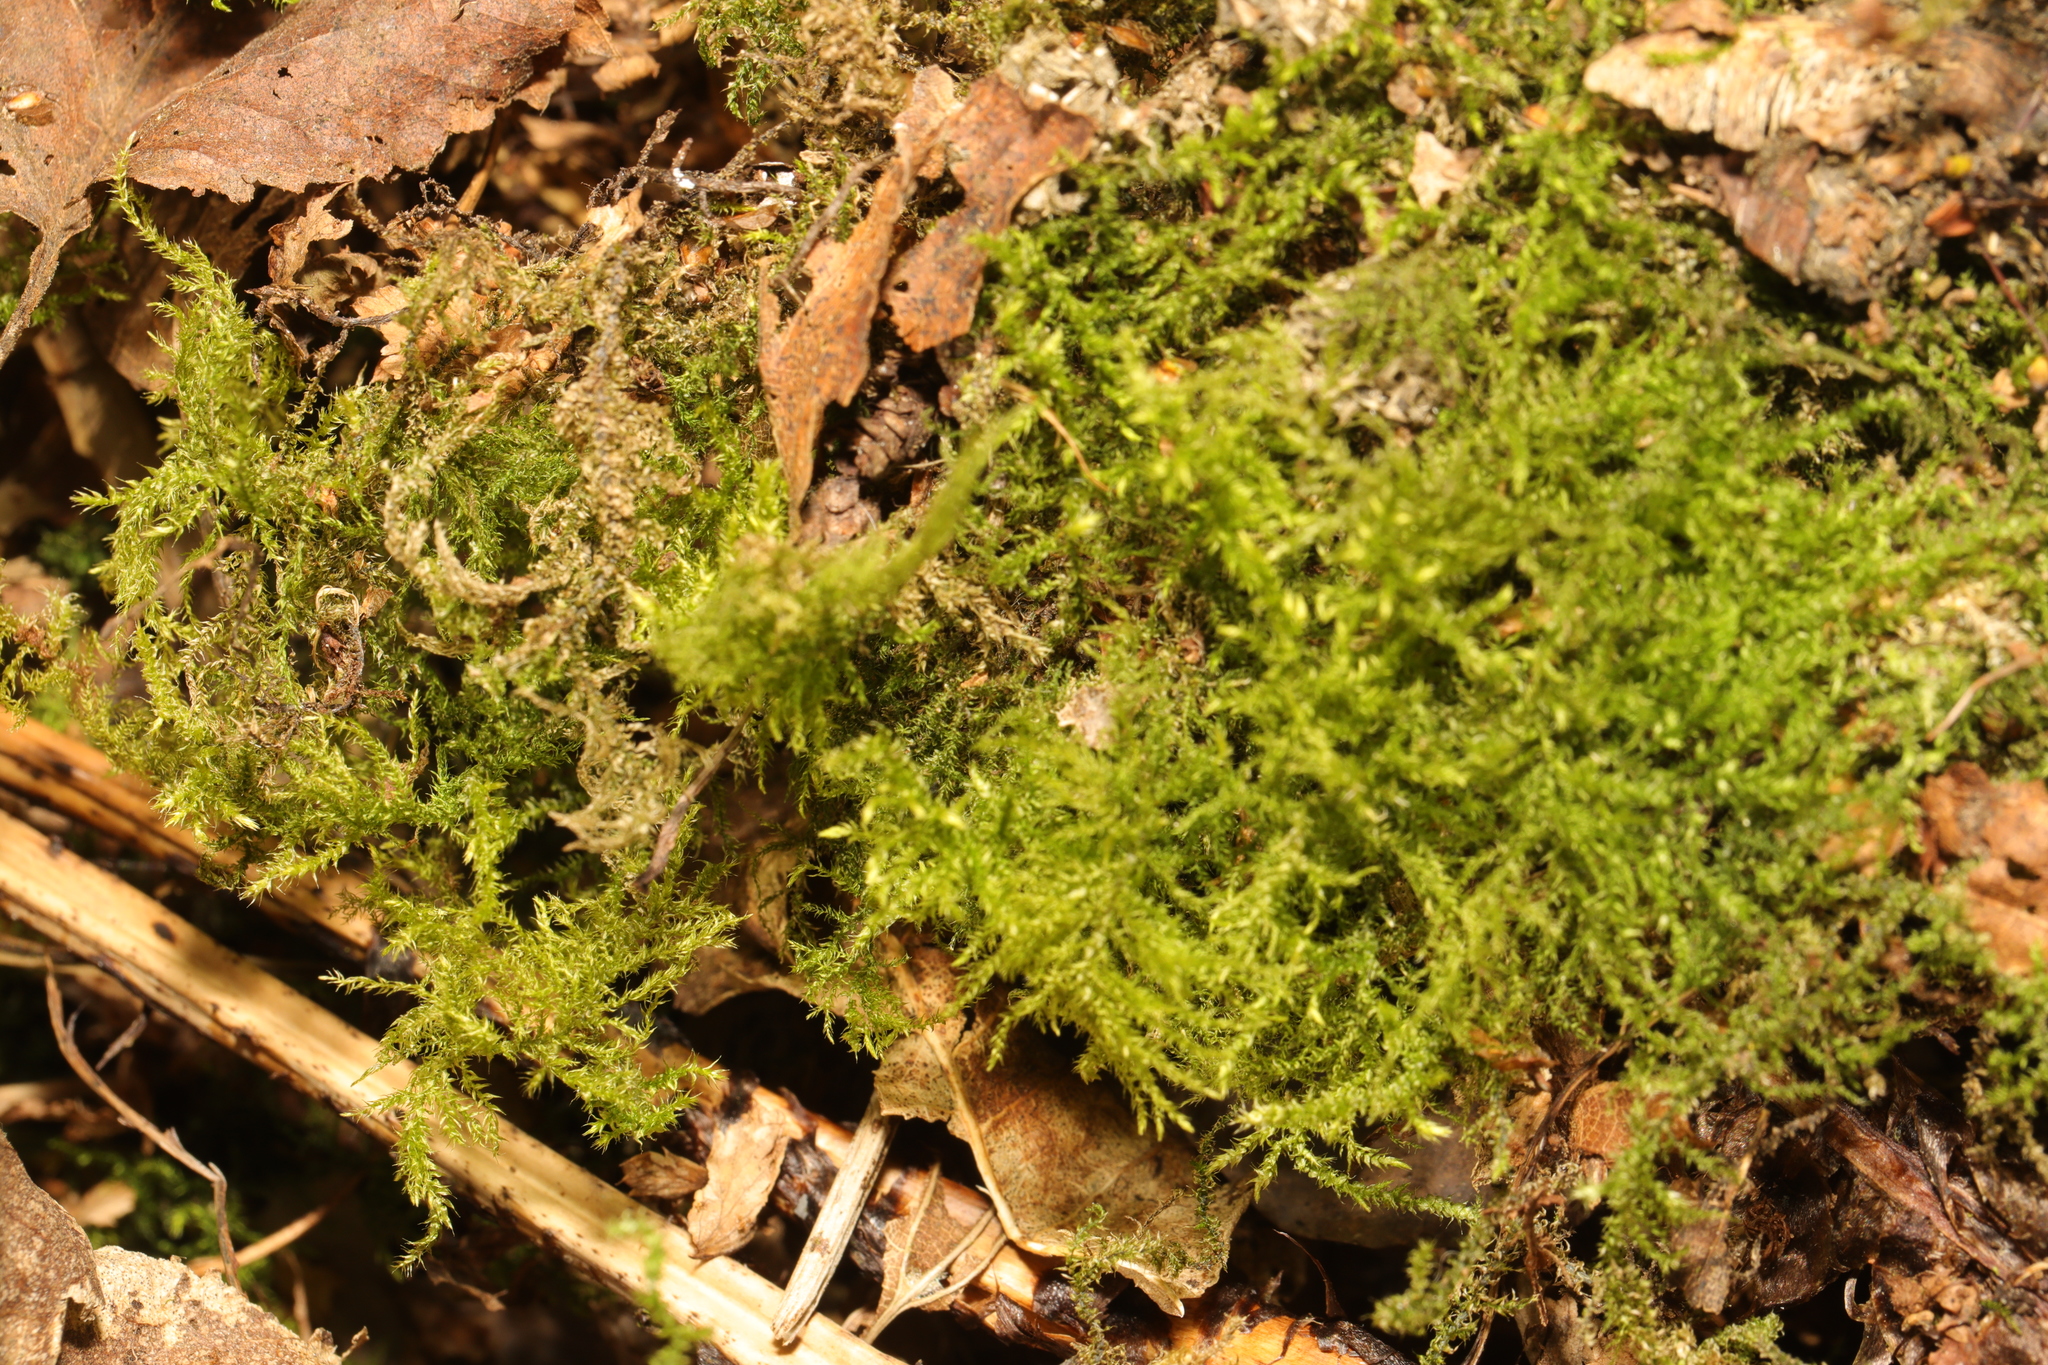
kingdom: Plantae
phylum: Bryophyta
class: Bryopsida
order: Hypnales
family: Brachytheciaceae
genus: Kindbergia
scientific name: Kindbergia praelonga
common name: Slender beaked moss
